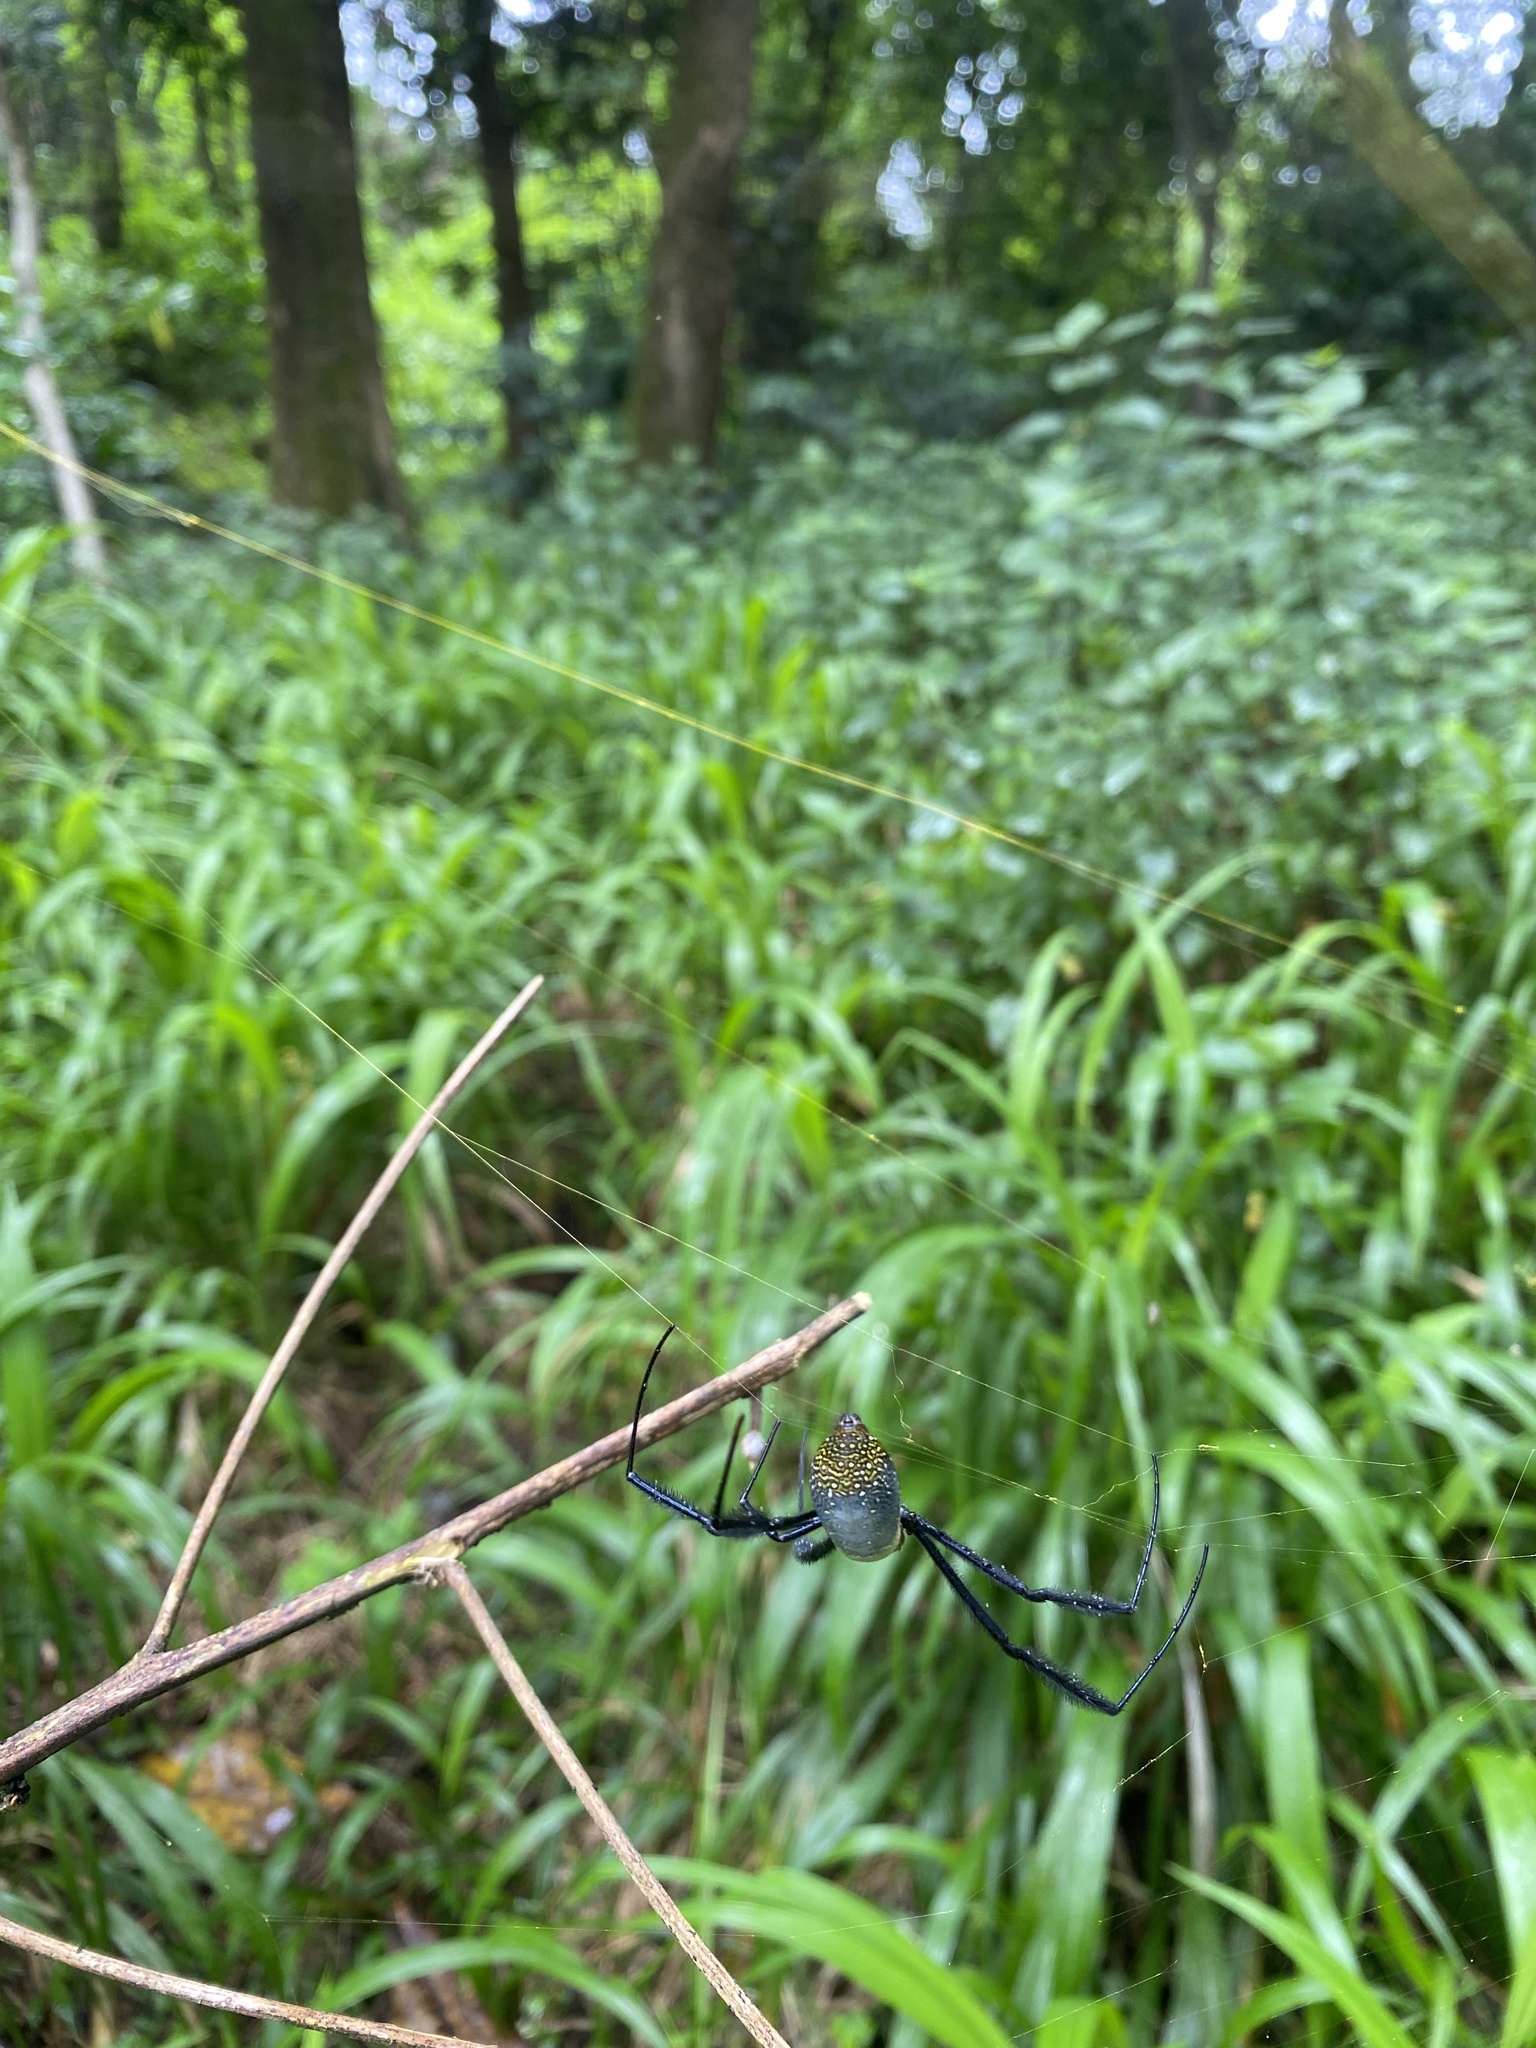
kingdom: Animalia
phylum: Arthropoda
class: Arachnida
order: Araneae
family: Araneidae
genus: Trichonephila
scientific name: Trichonephila fenestrata
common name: Hairy golden orb weaver
